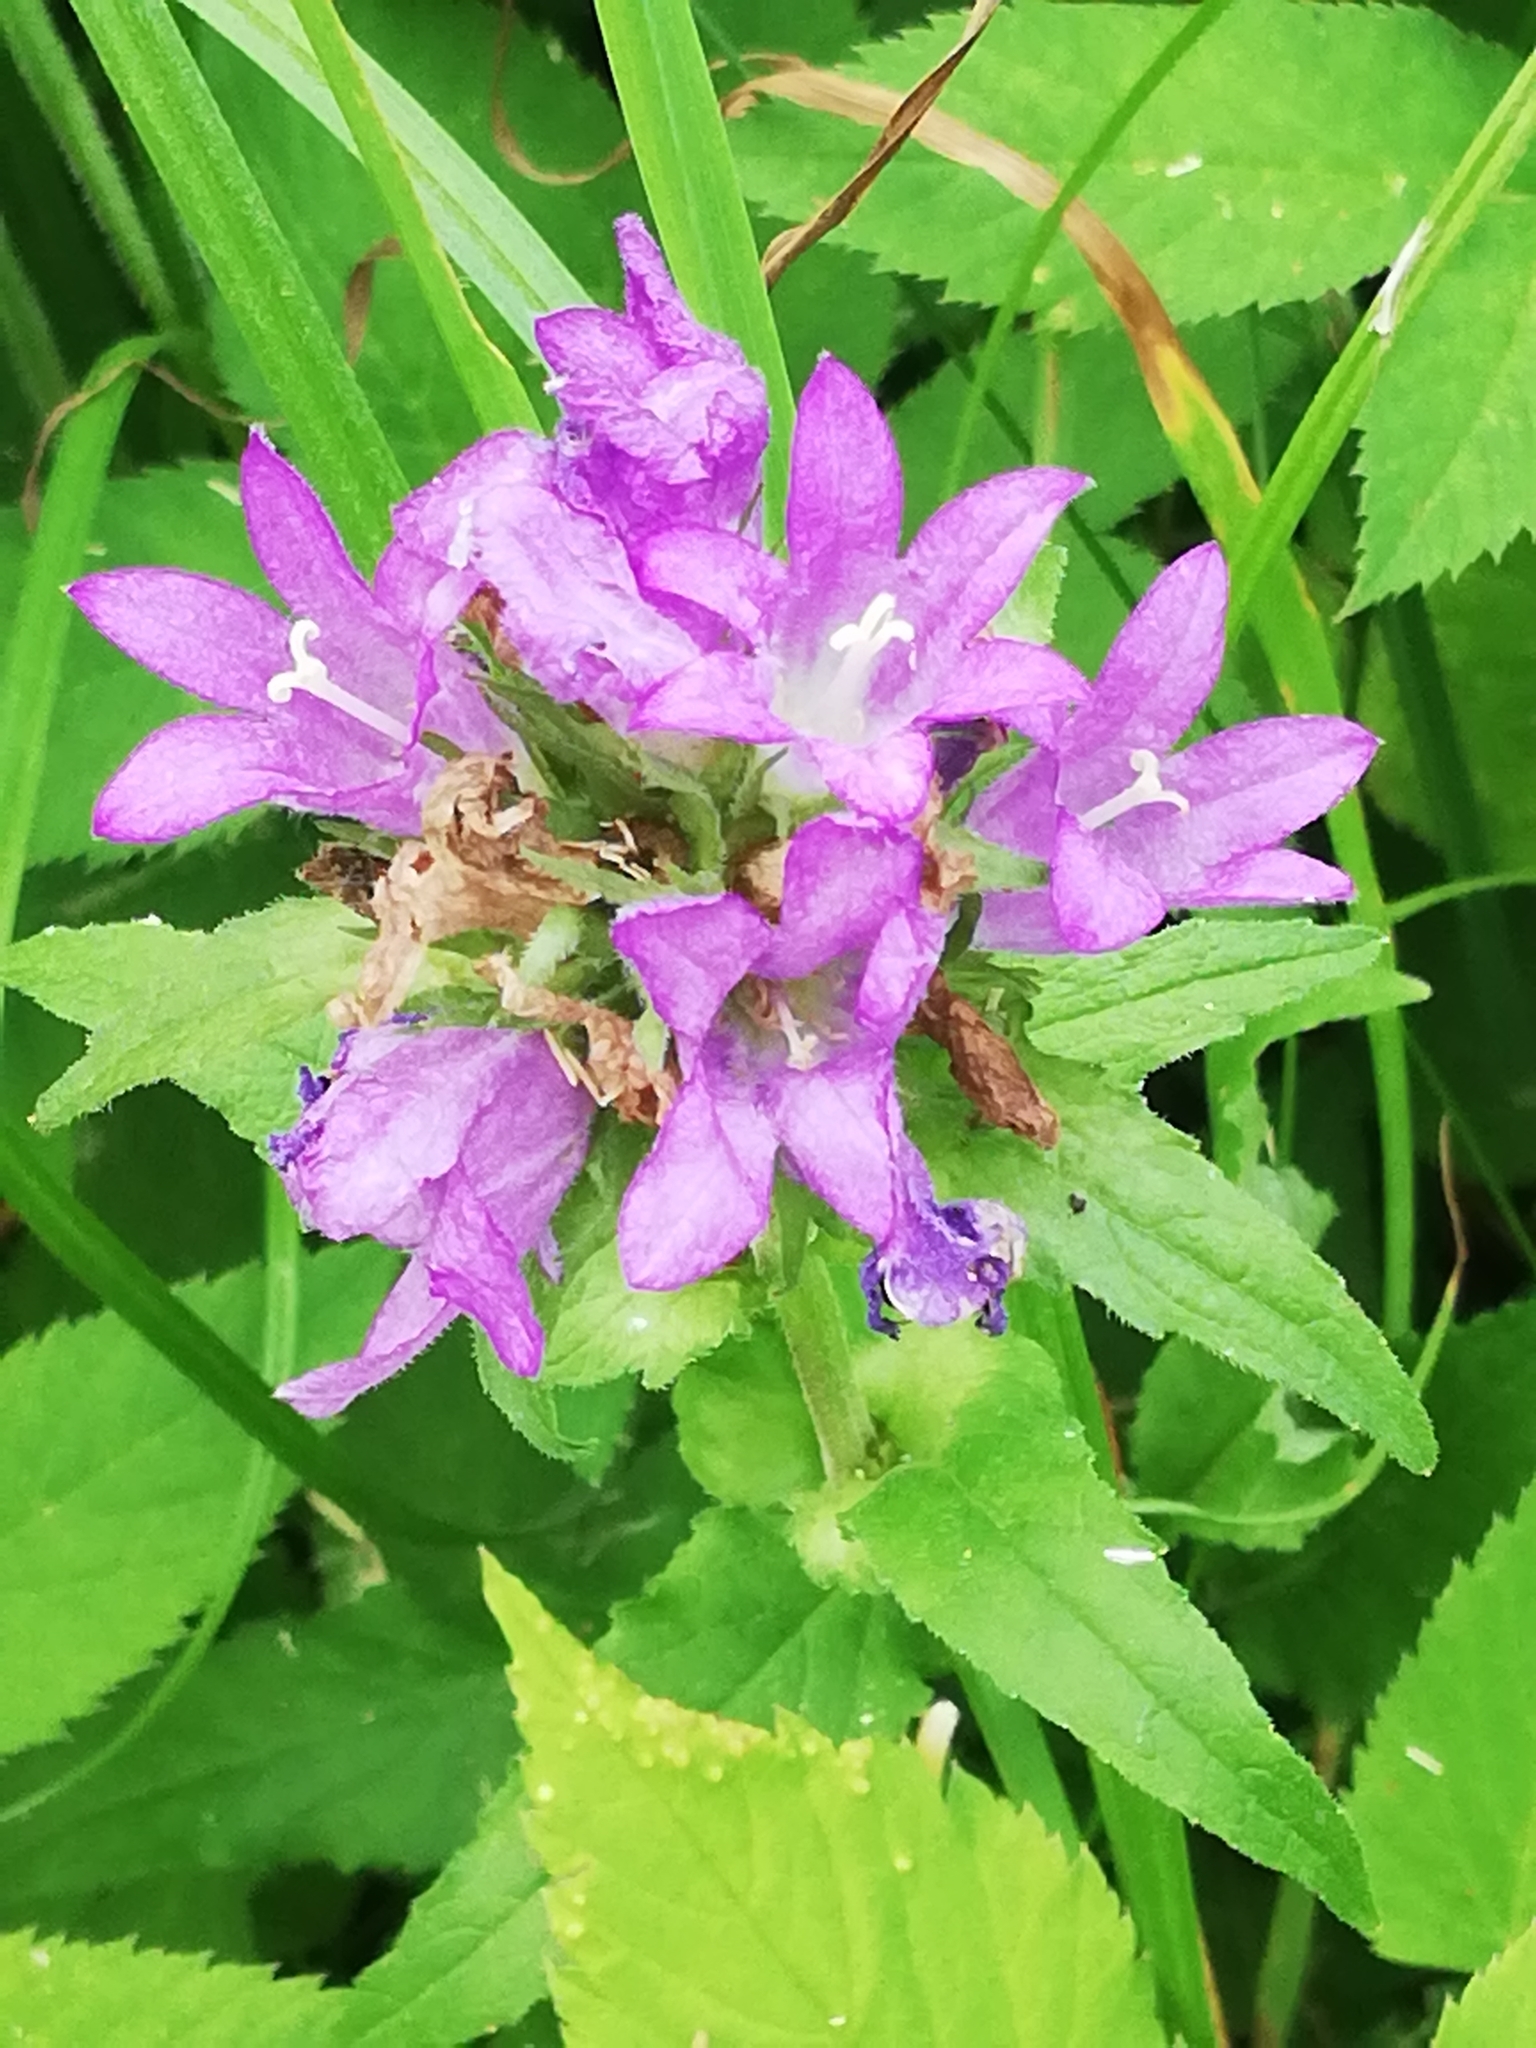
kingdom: Plantae
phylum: Tracheophyta
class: Magnoliopsida
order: Asterales
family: Campanulaceae
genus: Campanula
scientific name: Campanula glomerata
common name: Clustered bellflower
